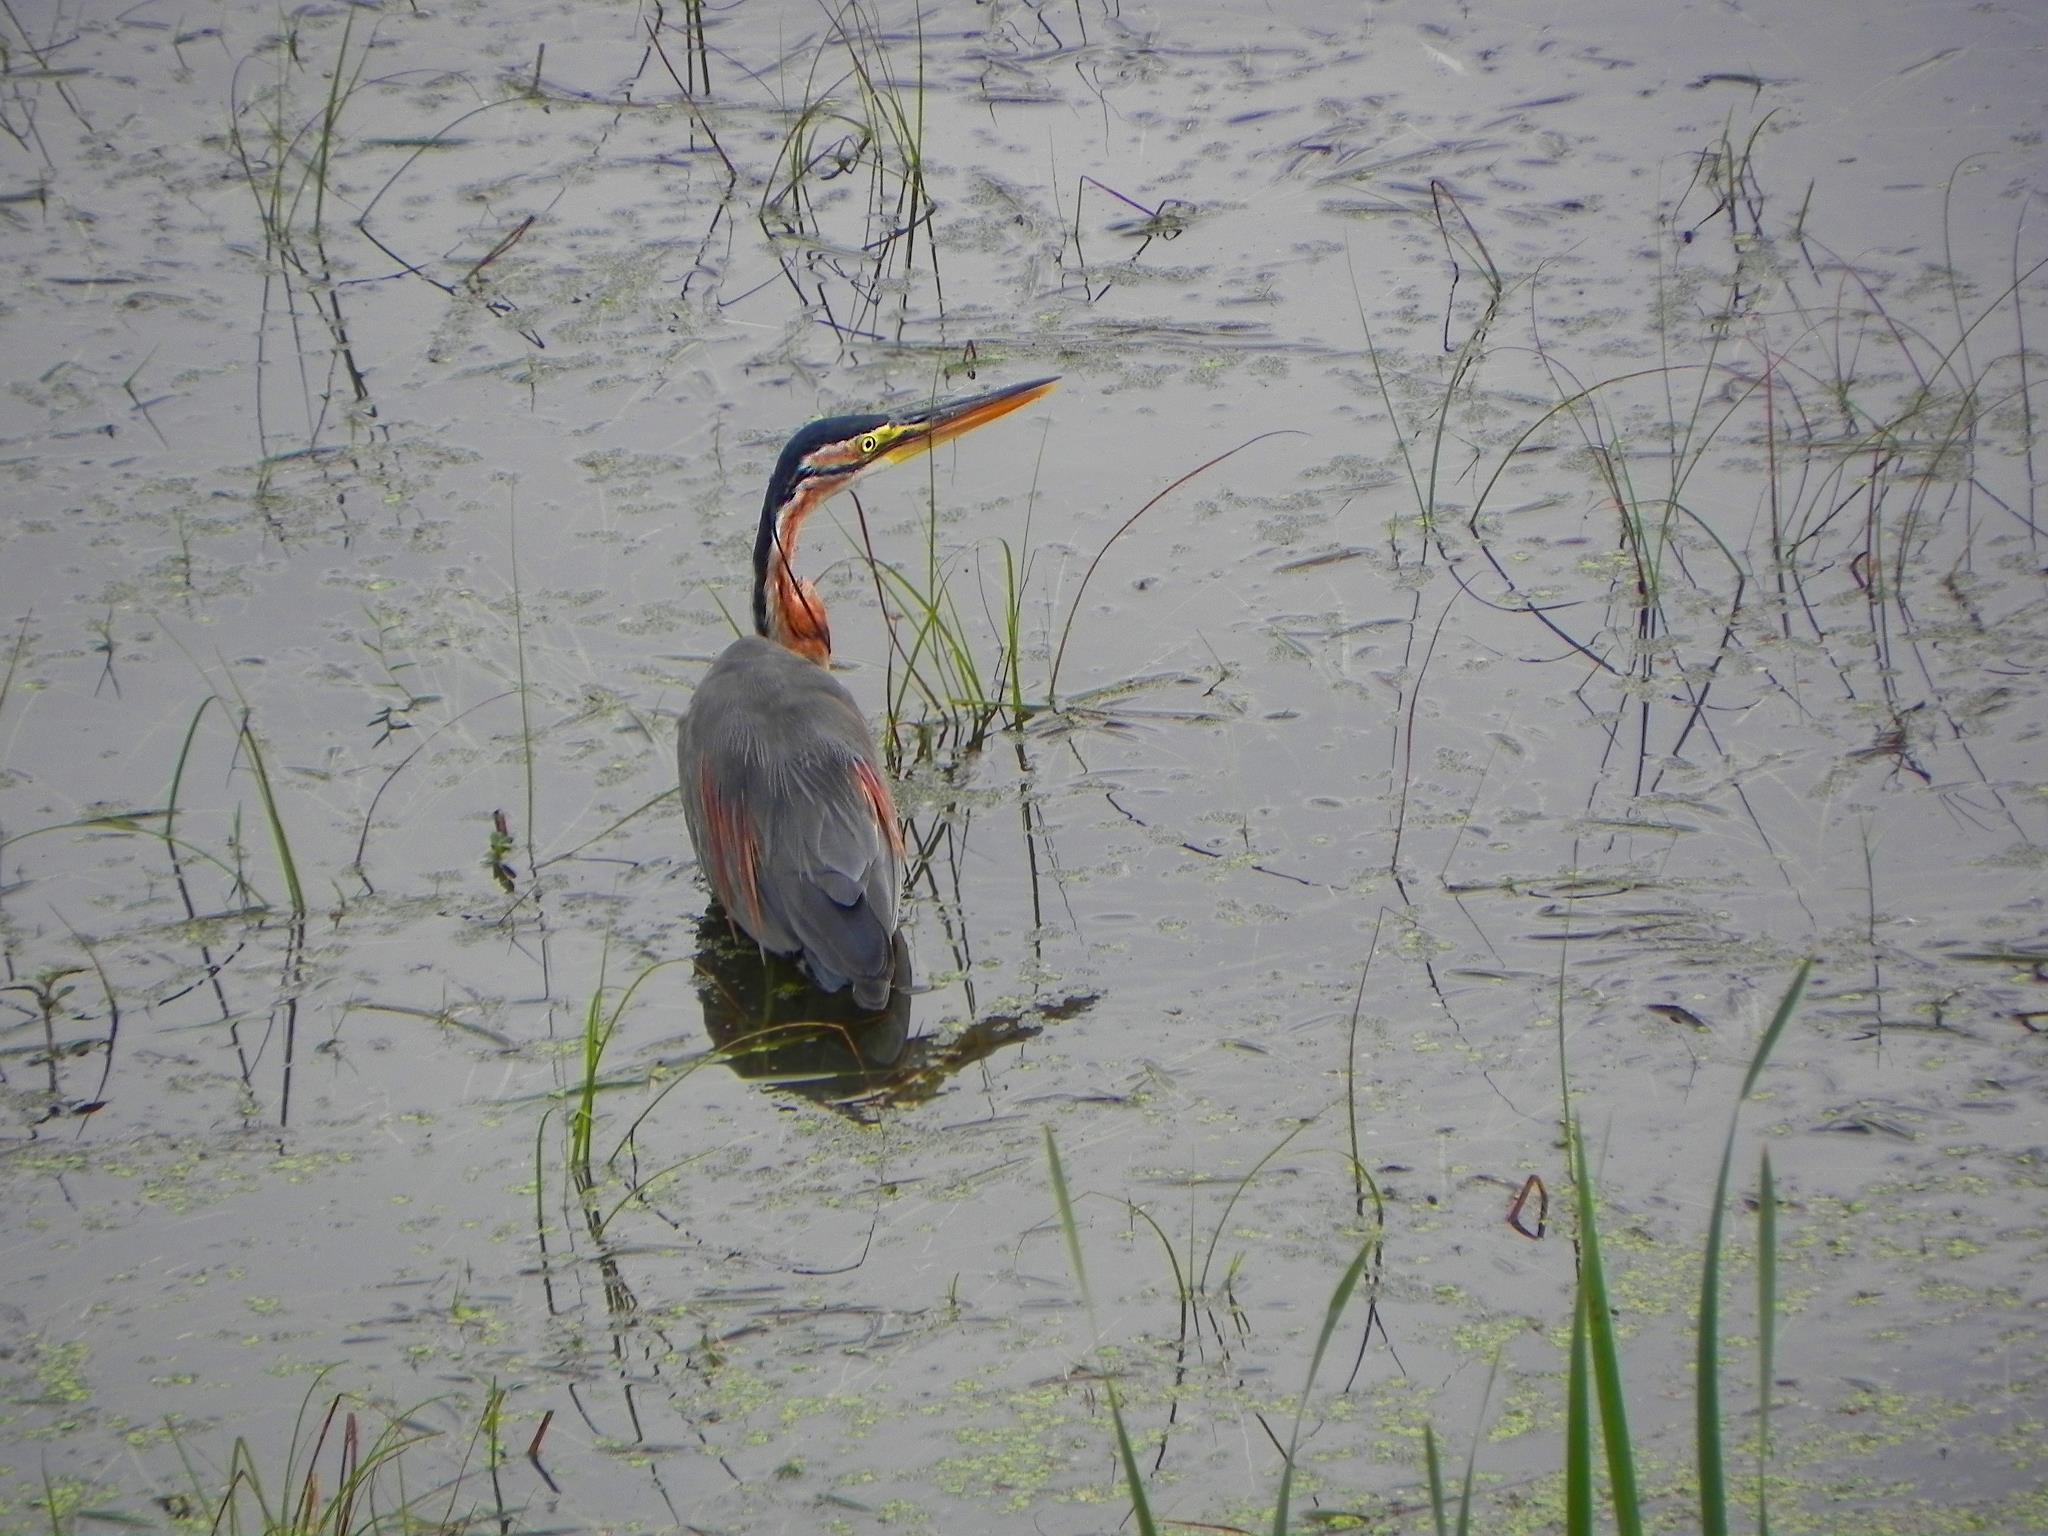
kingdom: Animalia
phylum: Chordata
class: Aves
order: Pelecaniformes
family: Ardeidae
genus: Ardea
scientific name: Ardea purpurea
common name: Purple heron
